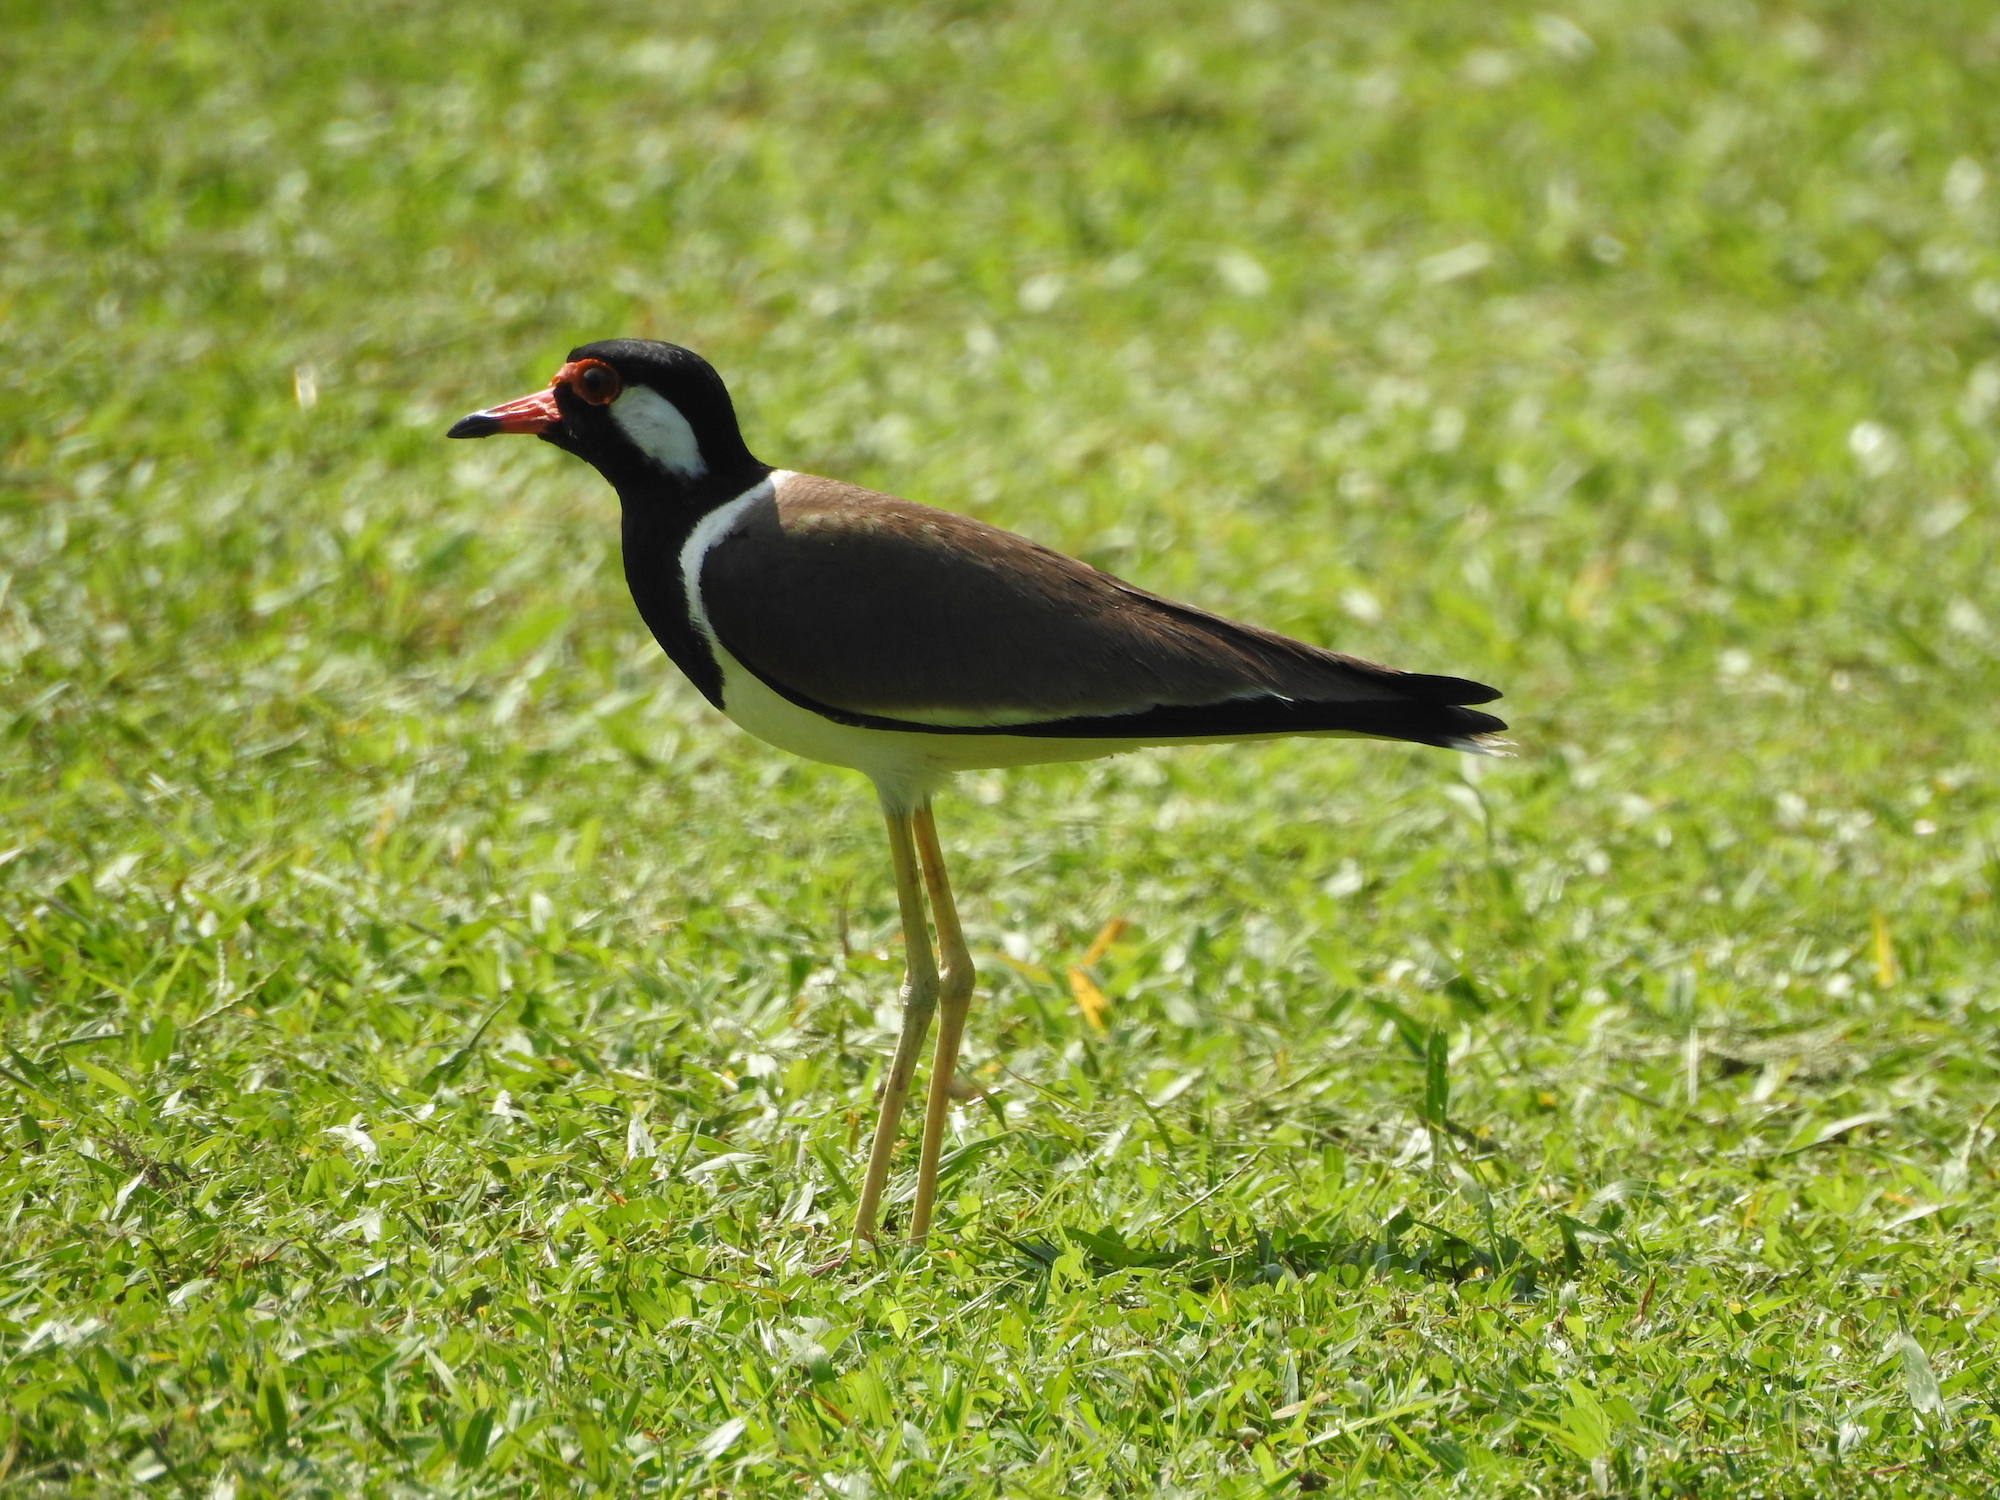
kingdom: Animalia
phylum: Chordata
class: Aves
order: Charadriiformes
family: Charadriidae
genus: Vanellus
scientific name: Vanellus indicus
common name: Red-wattled lapwing
